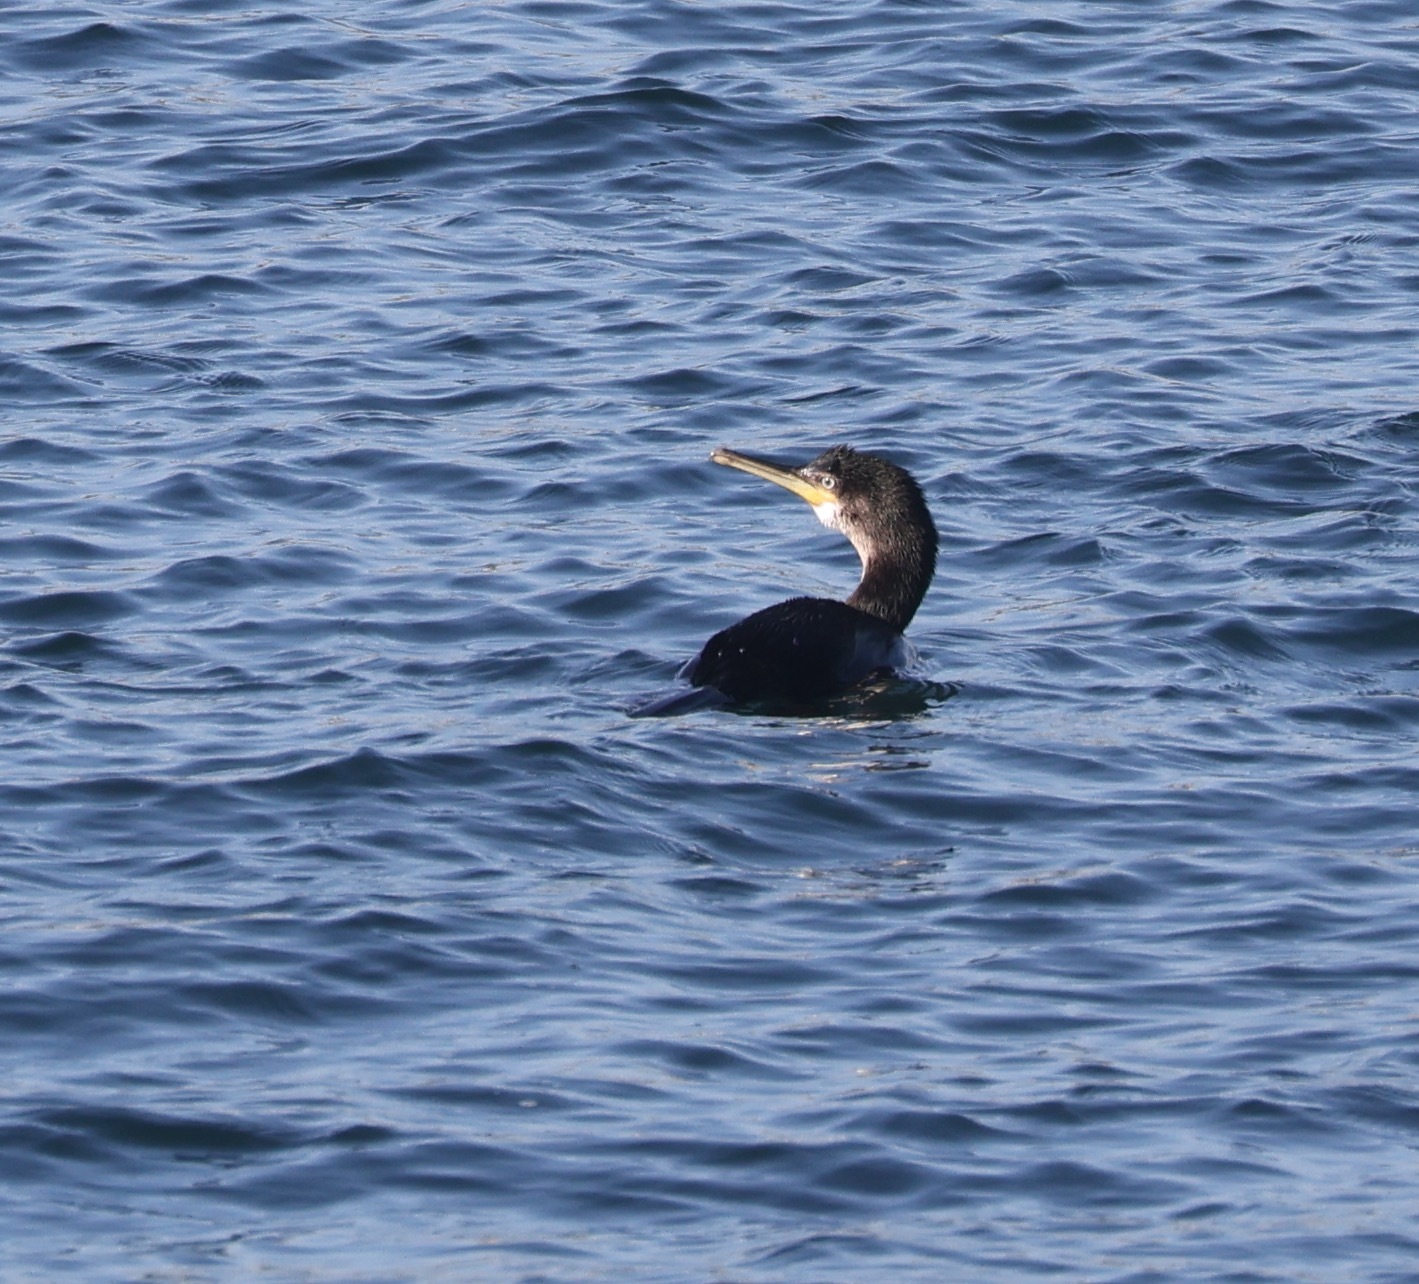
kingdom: Animalia
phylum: Chordata
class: Aves
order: Suliformes
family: Phalacrocoracidae
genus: Phalacrocorax
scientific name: Phalacrocorax aristotelis
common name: European shag
